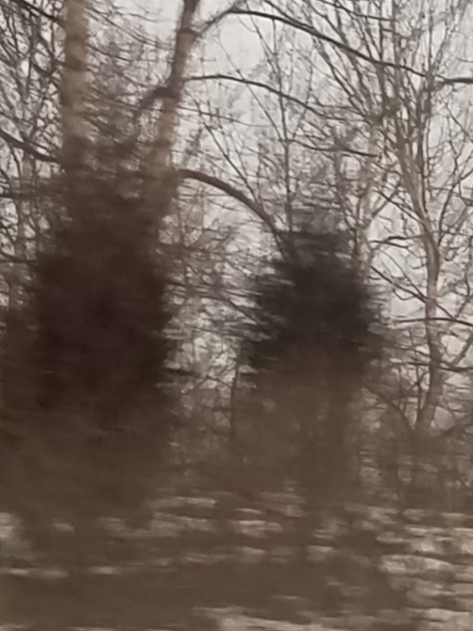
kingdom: Plantae
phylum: Tracheophyta
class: Pinopsida
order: Pinales
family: Cupressaceae
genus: Juniperus
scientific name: Juniperus virginiana
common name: Red juniper
